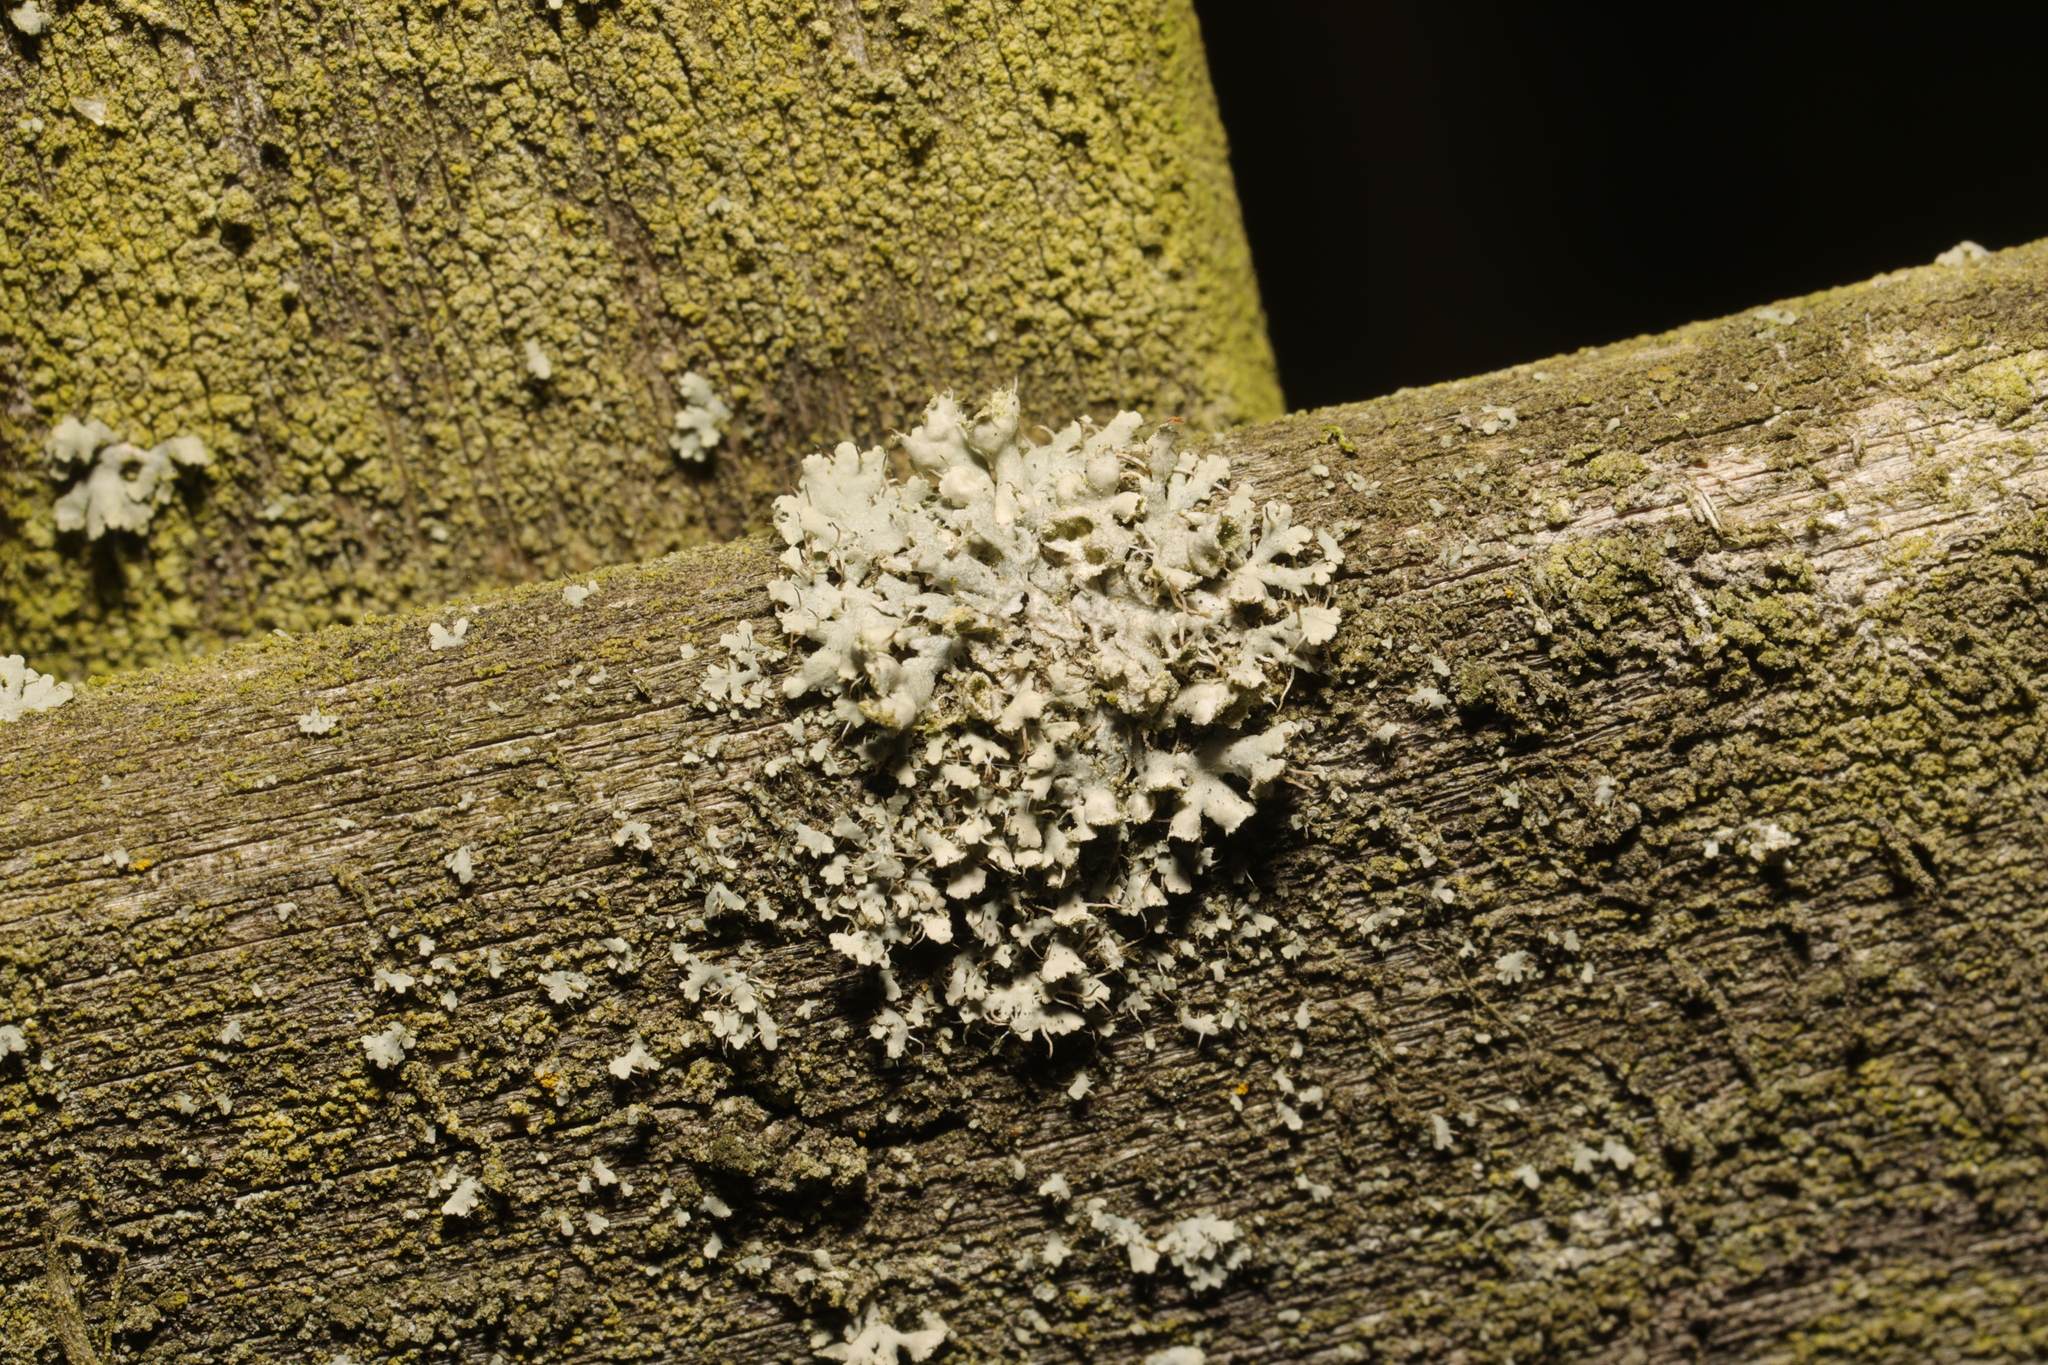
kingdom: Fungi
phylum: Ascomycota
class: Lecanoromycetes
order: Caliciales
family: Physciaceae
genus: Physcia
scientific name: Physcia adscendens
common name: Hooded rosette lichen
